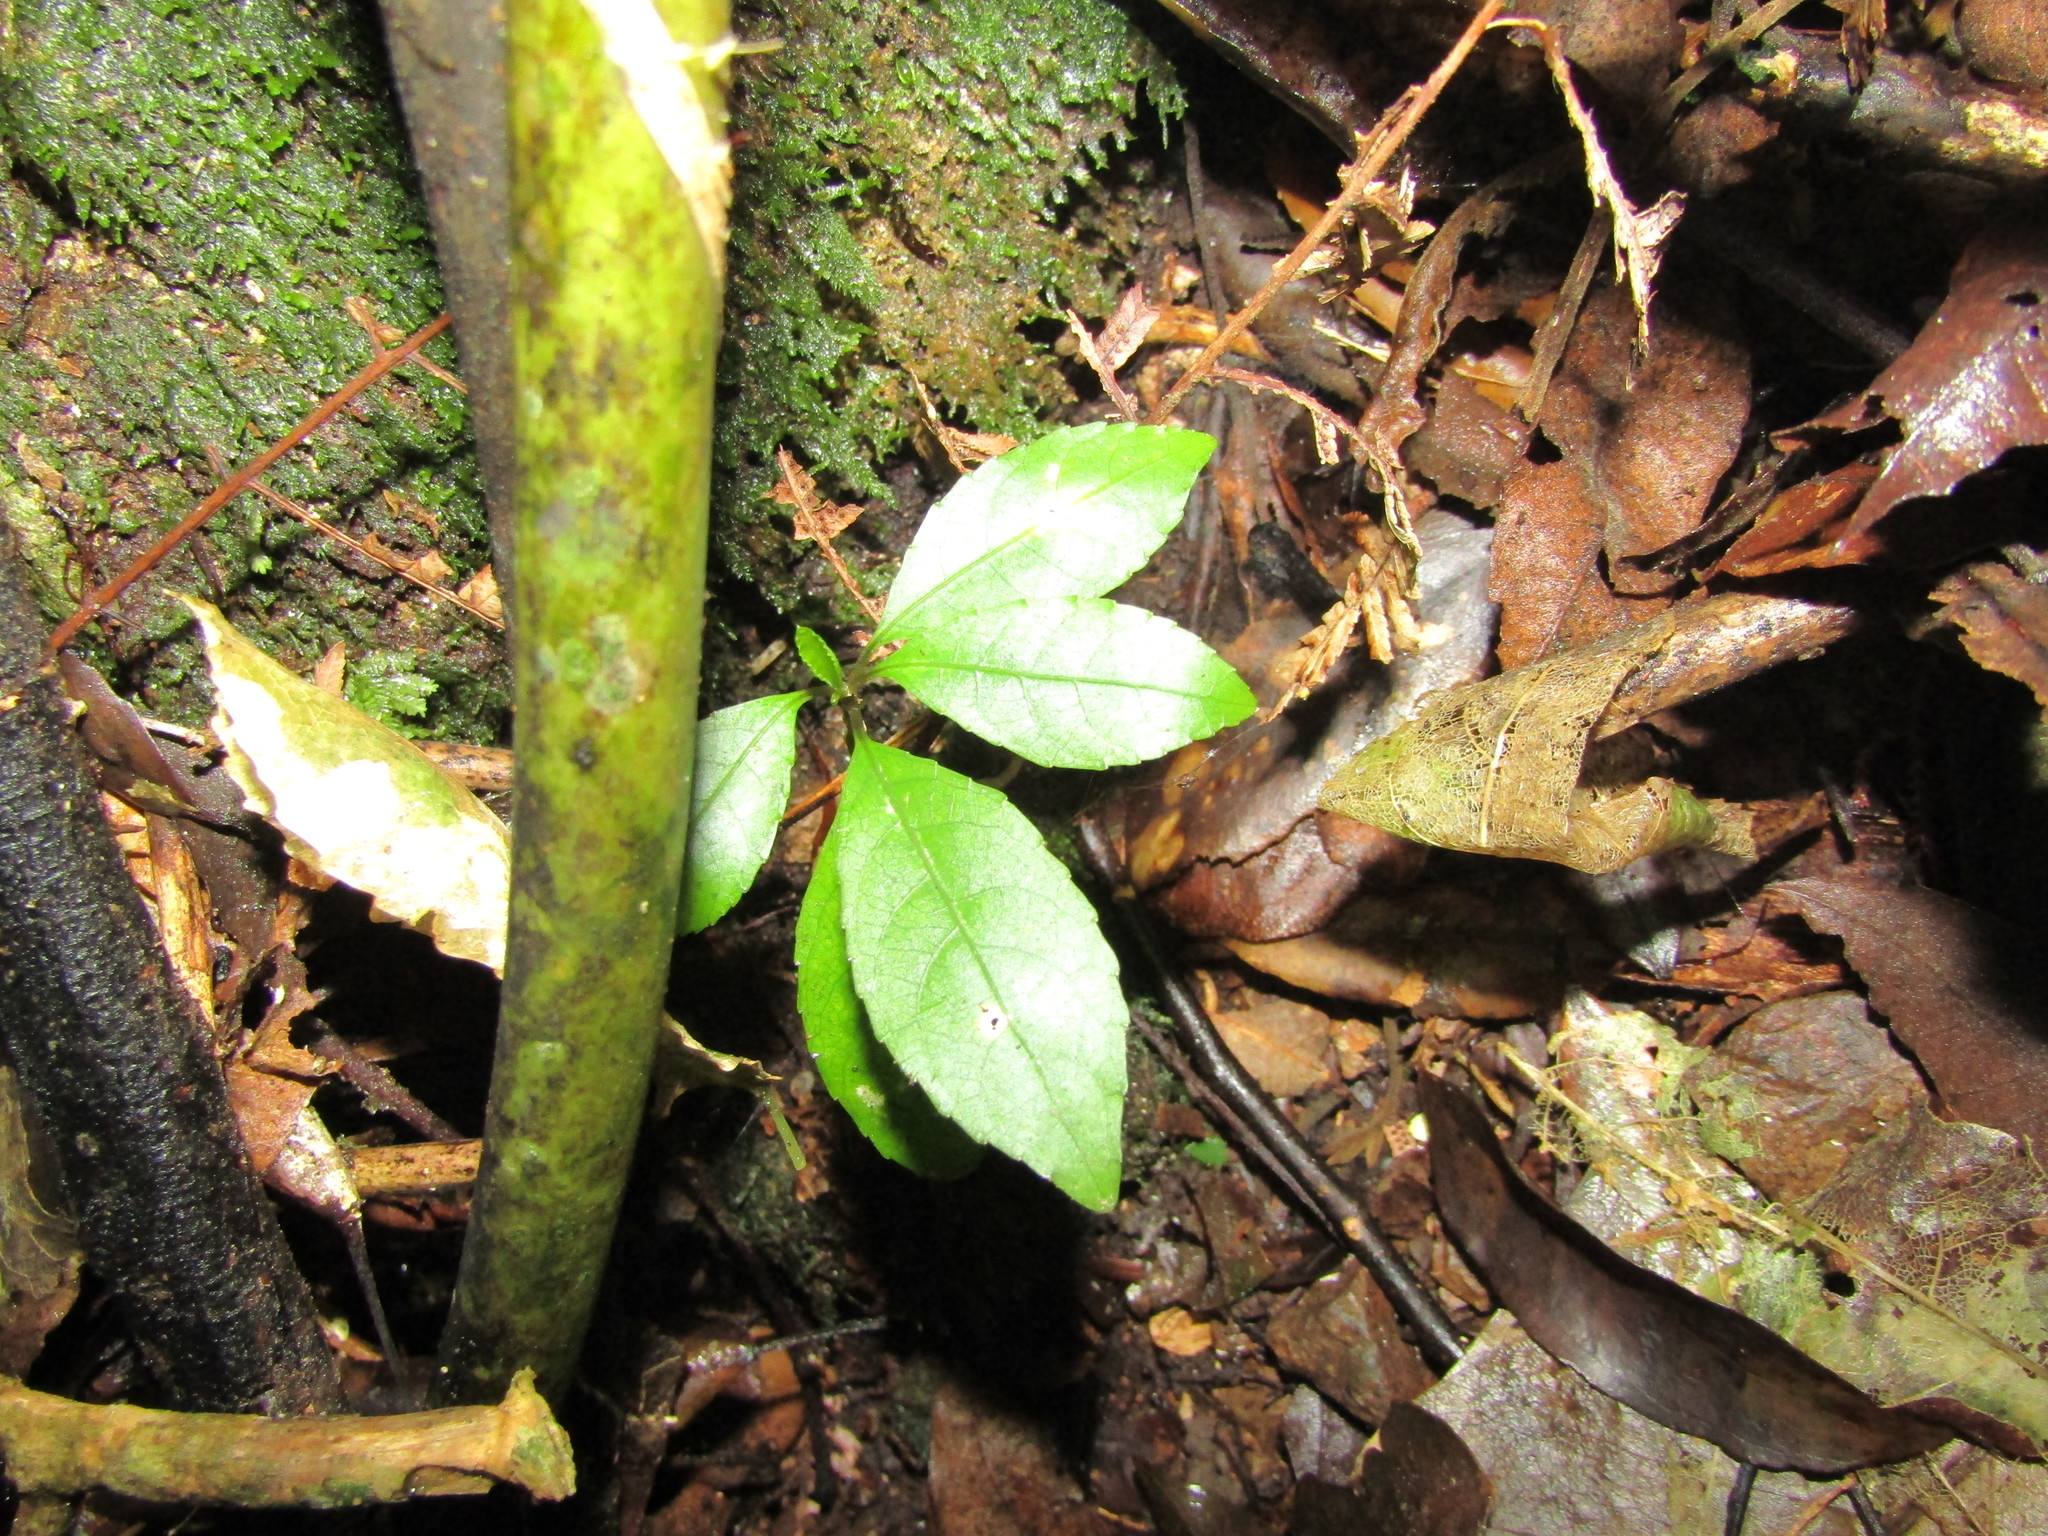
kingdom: Plantae
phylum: Tracheophyta
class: Magnoliopsida
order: Malpighiales
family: Violaceae
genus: Melicytus
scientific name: Melicytus ramiflorus
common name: Mahoe
